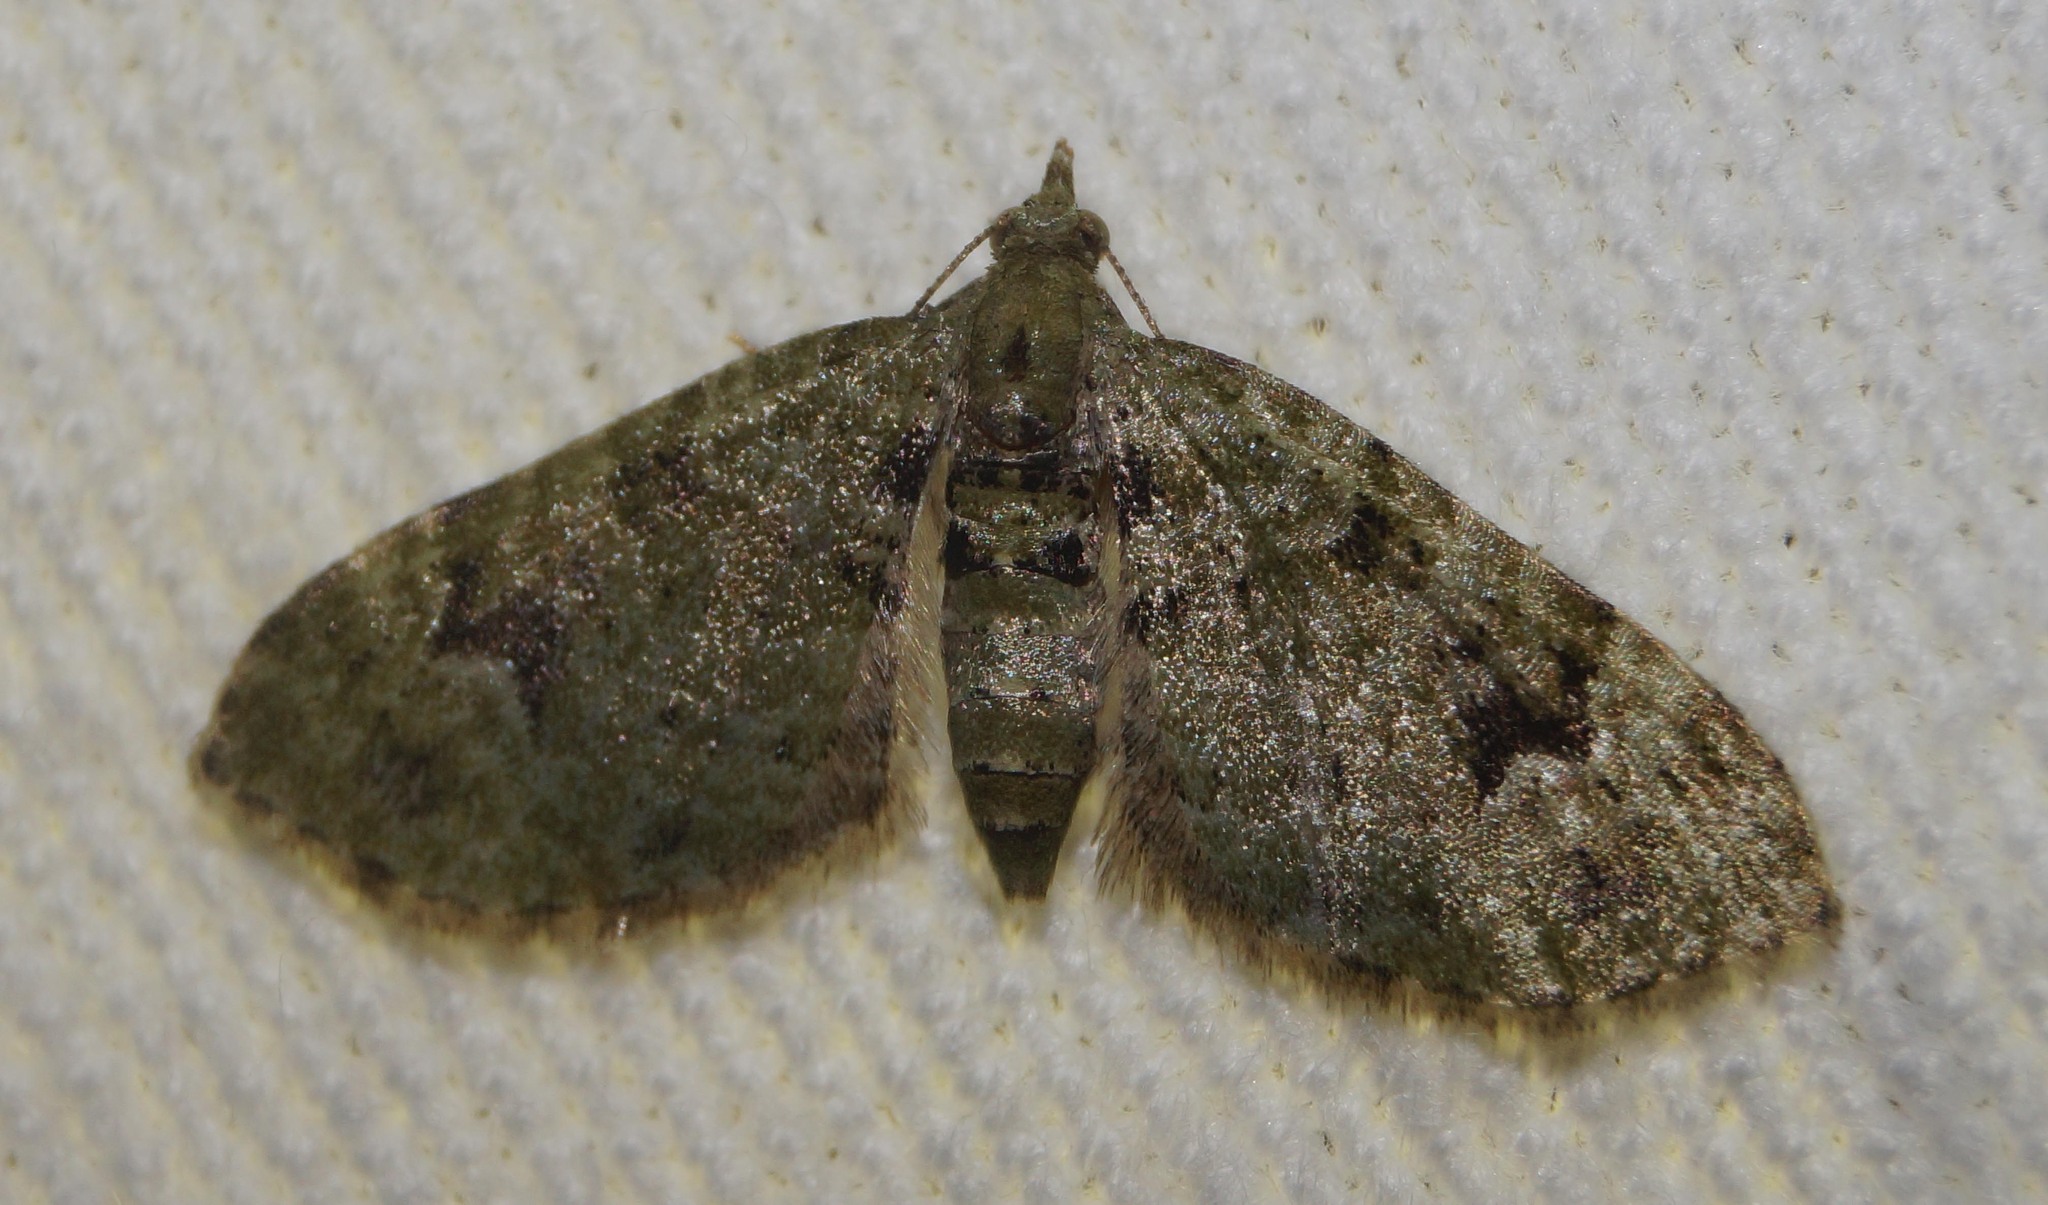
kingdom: Animalia
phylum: Arthropoda
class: Insecta
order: Lepidoptera
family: Geometridae
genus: Chloroclystis
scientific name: Chloroclystis v-ata
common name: V-pug
